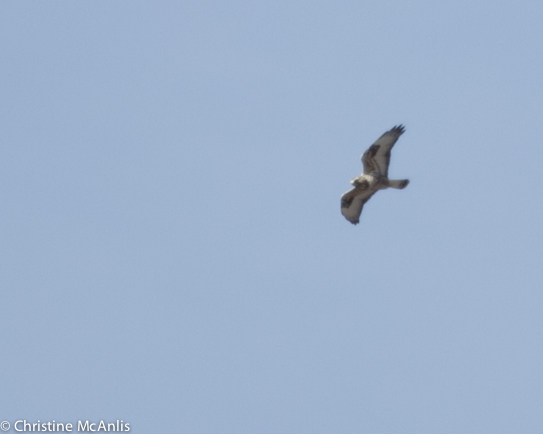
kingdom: Animalia
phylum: Chordata
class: Aves
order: Accipitriformes
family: Accipitridae
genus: Buteo
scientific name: Buteo lagopus
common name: Rough-legged buzzard
